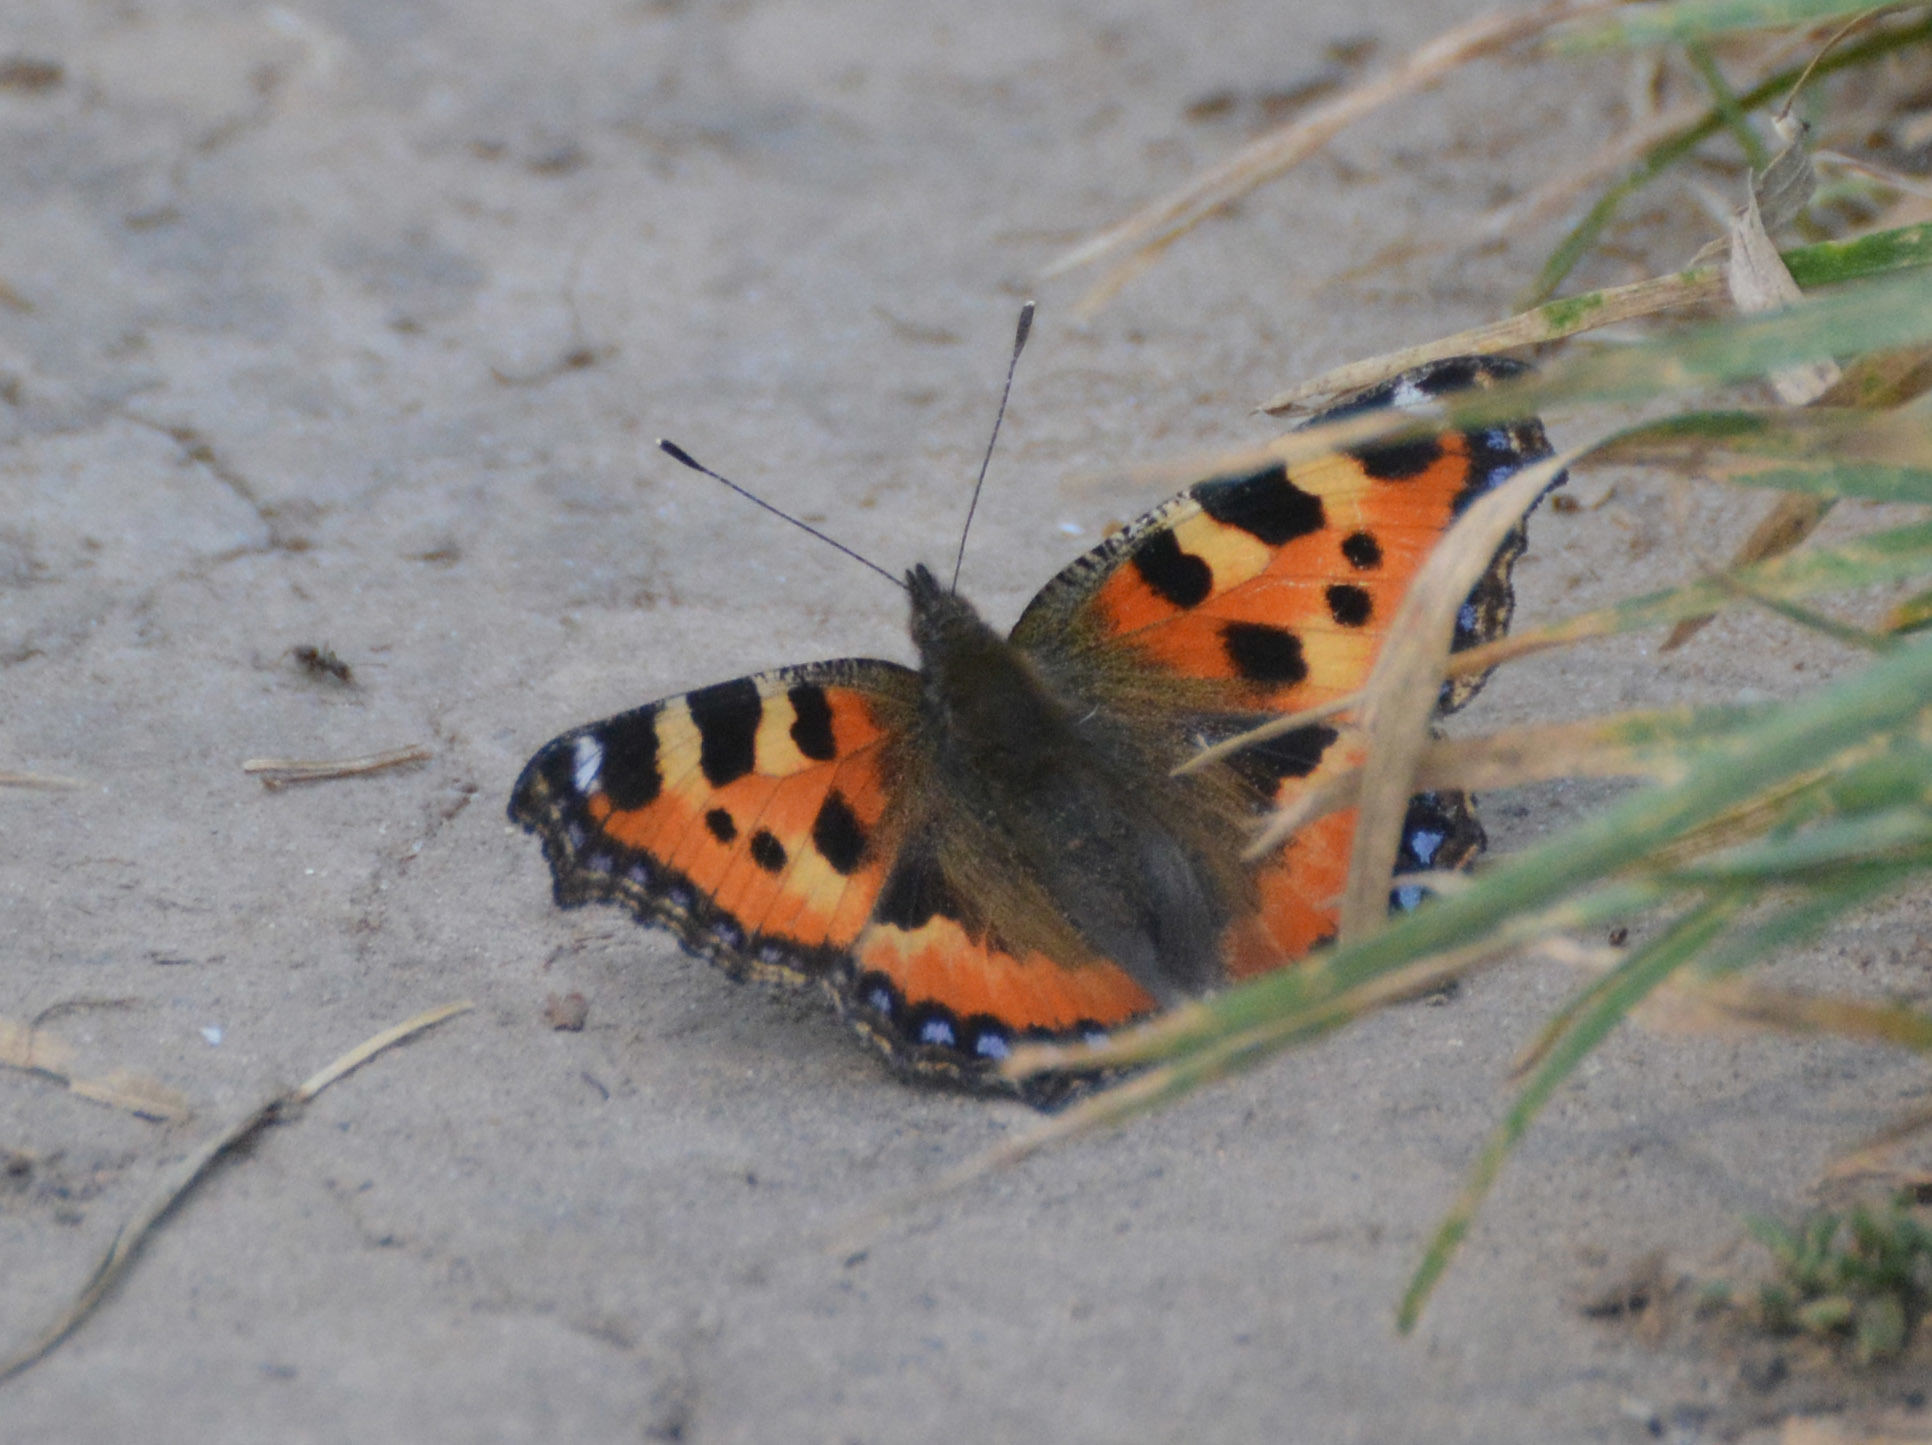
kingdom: Animalia
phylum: Arthropoda
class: Insecta
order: Lepidoptera
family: Nymphalidae
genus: Aglais
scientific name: Aglais urticae
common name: Small tortoiseshell
